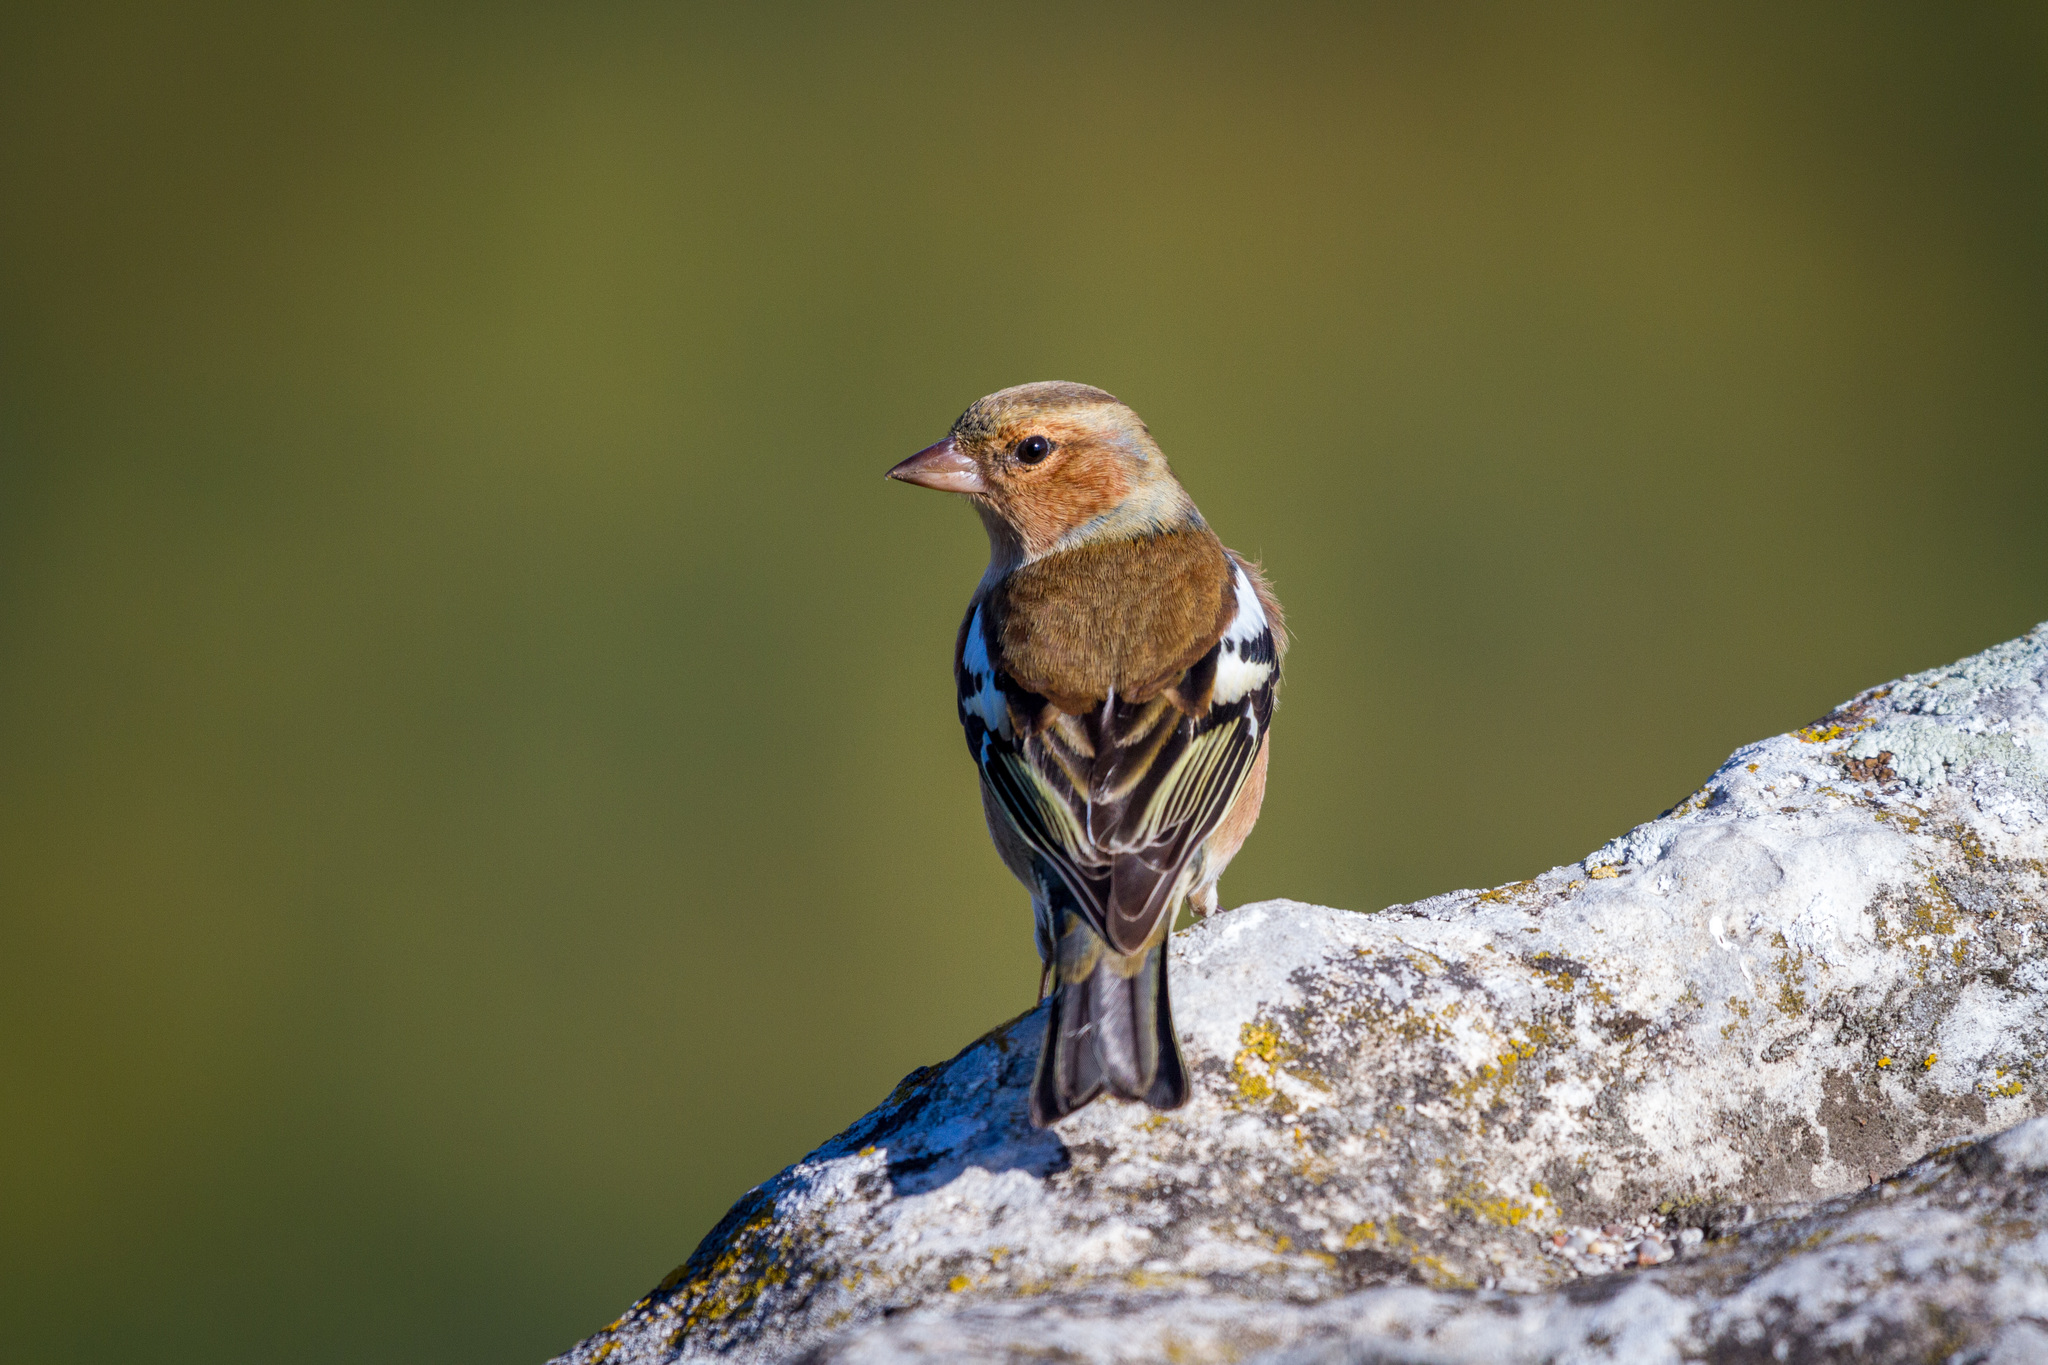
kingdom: Animalia
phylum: Chordata
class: Aves
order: Passeriformes
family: Fringillidae
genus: Fringilla
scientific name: Fringilla coelebs
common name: Common chaffinch
